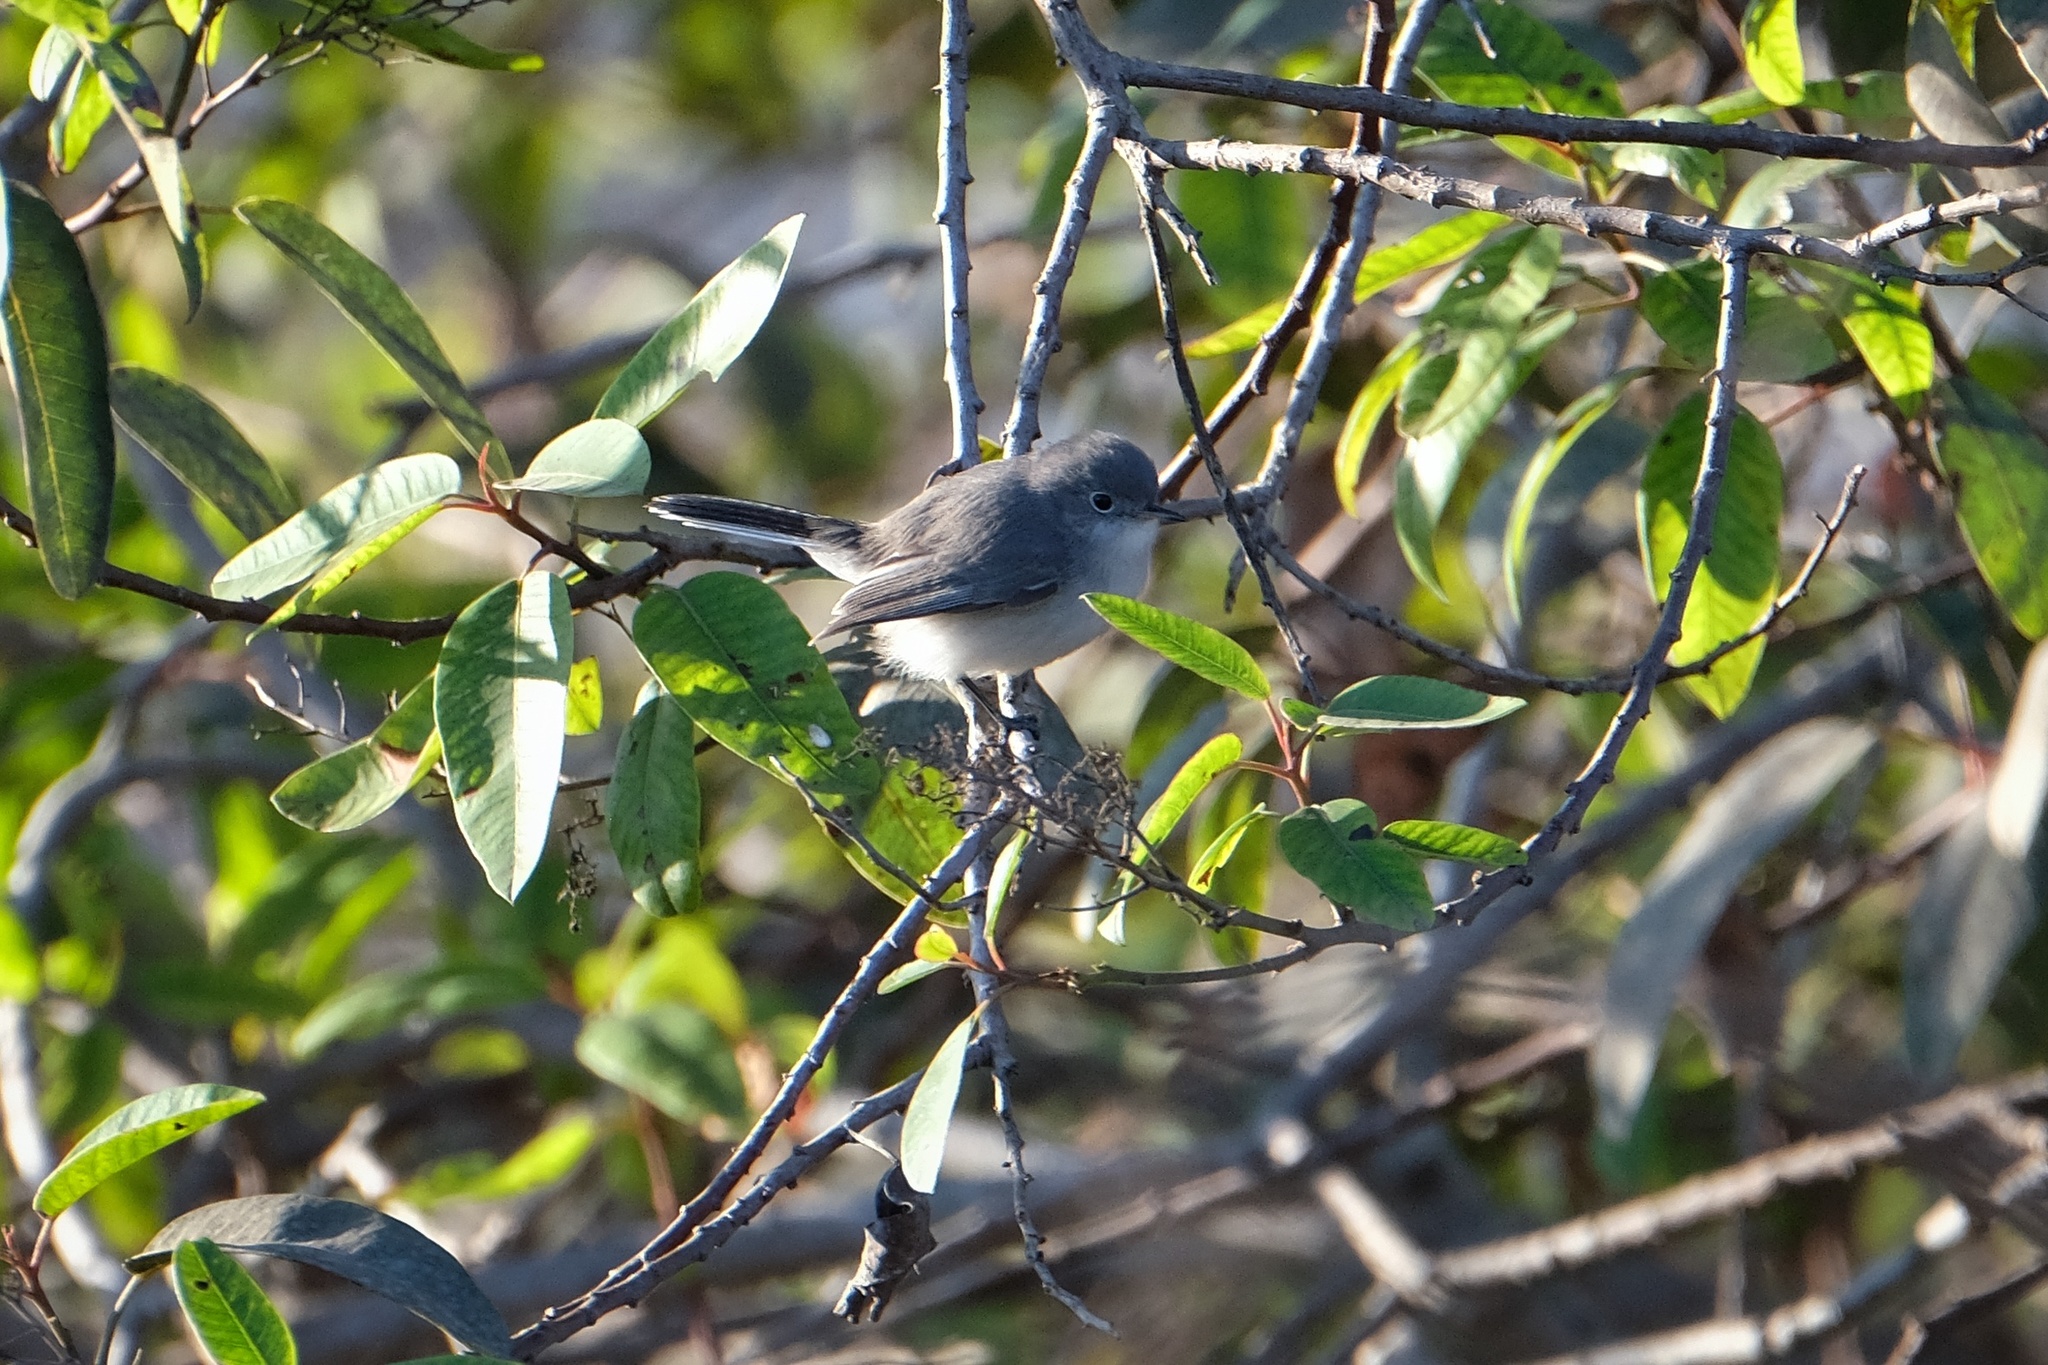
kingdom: Animalia
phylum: Chordata
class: Aves
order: Passeriformes
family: Polioptilidae
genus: Polioptila
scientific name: Polioptila caerulea
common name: Blue-gray gnatcatcher
